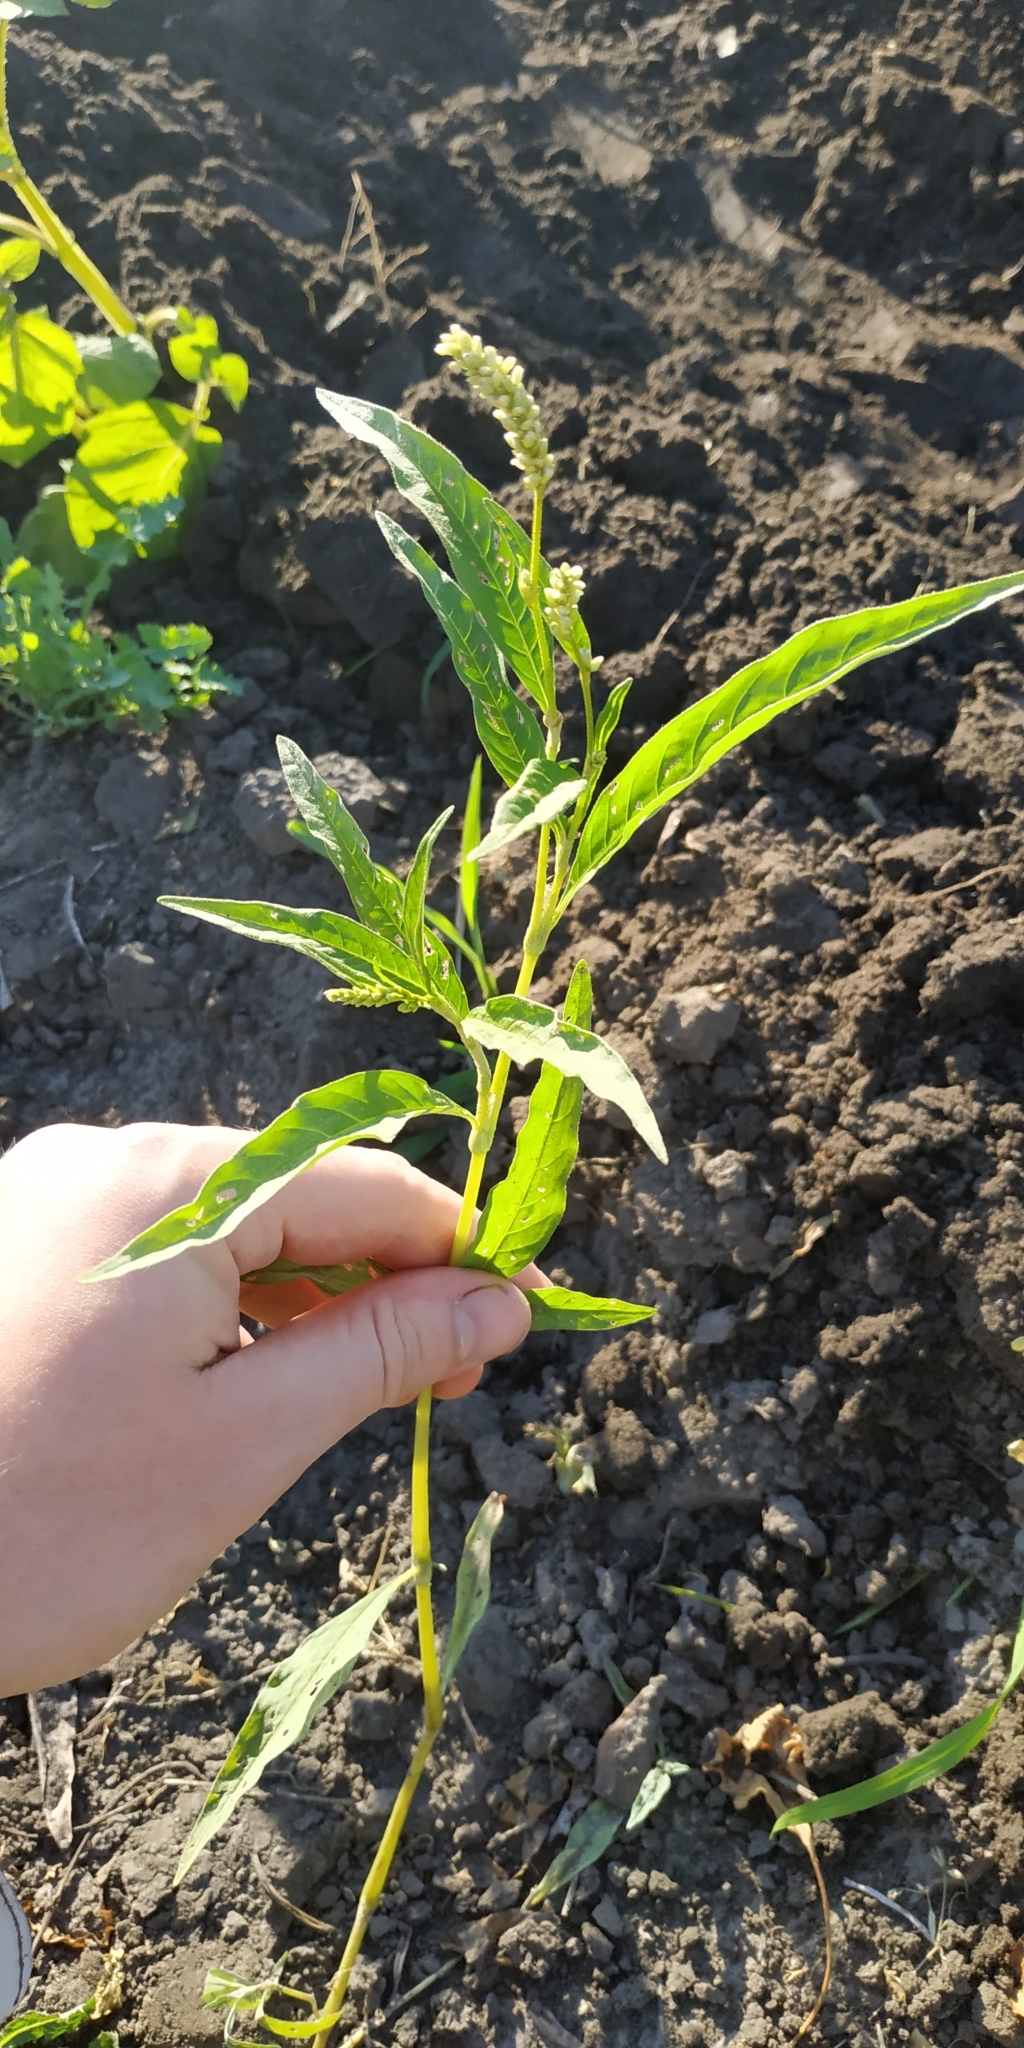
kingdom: Plantae
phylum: Tracheophyta
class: Magnoliopsida
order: Caryophyllales
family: Polygonaceae
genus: Persicaria
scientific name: Persicaria lapathifolia
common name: Curlytop knotweed
